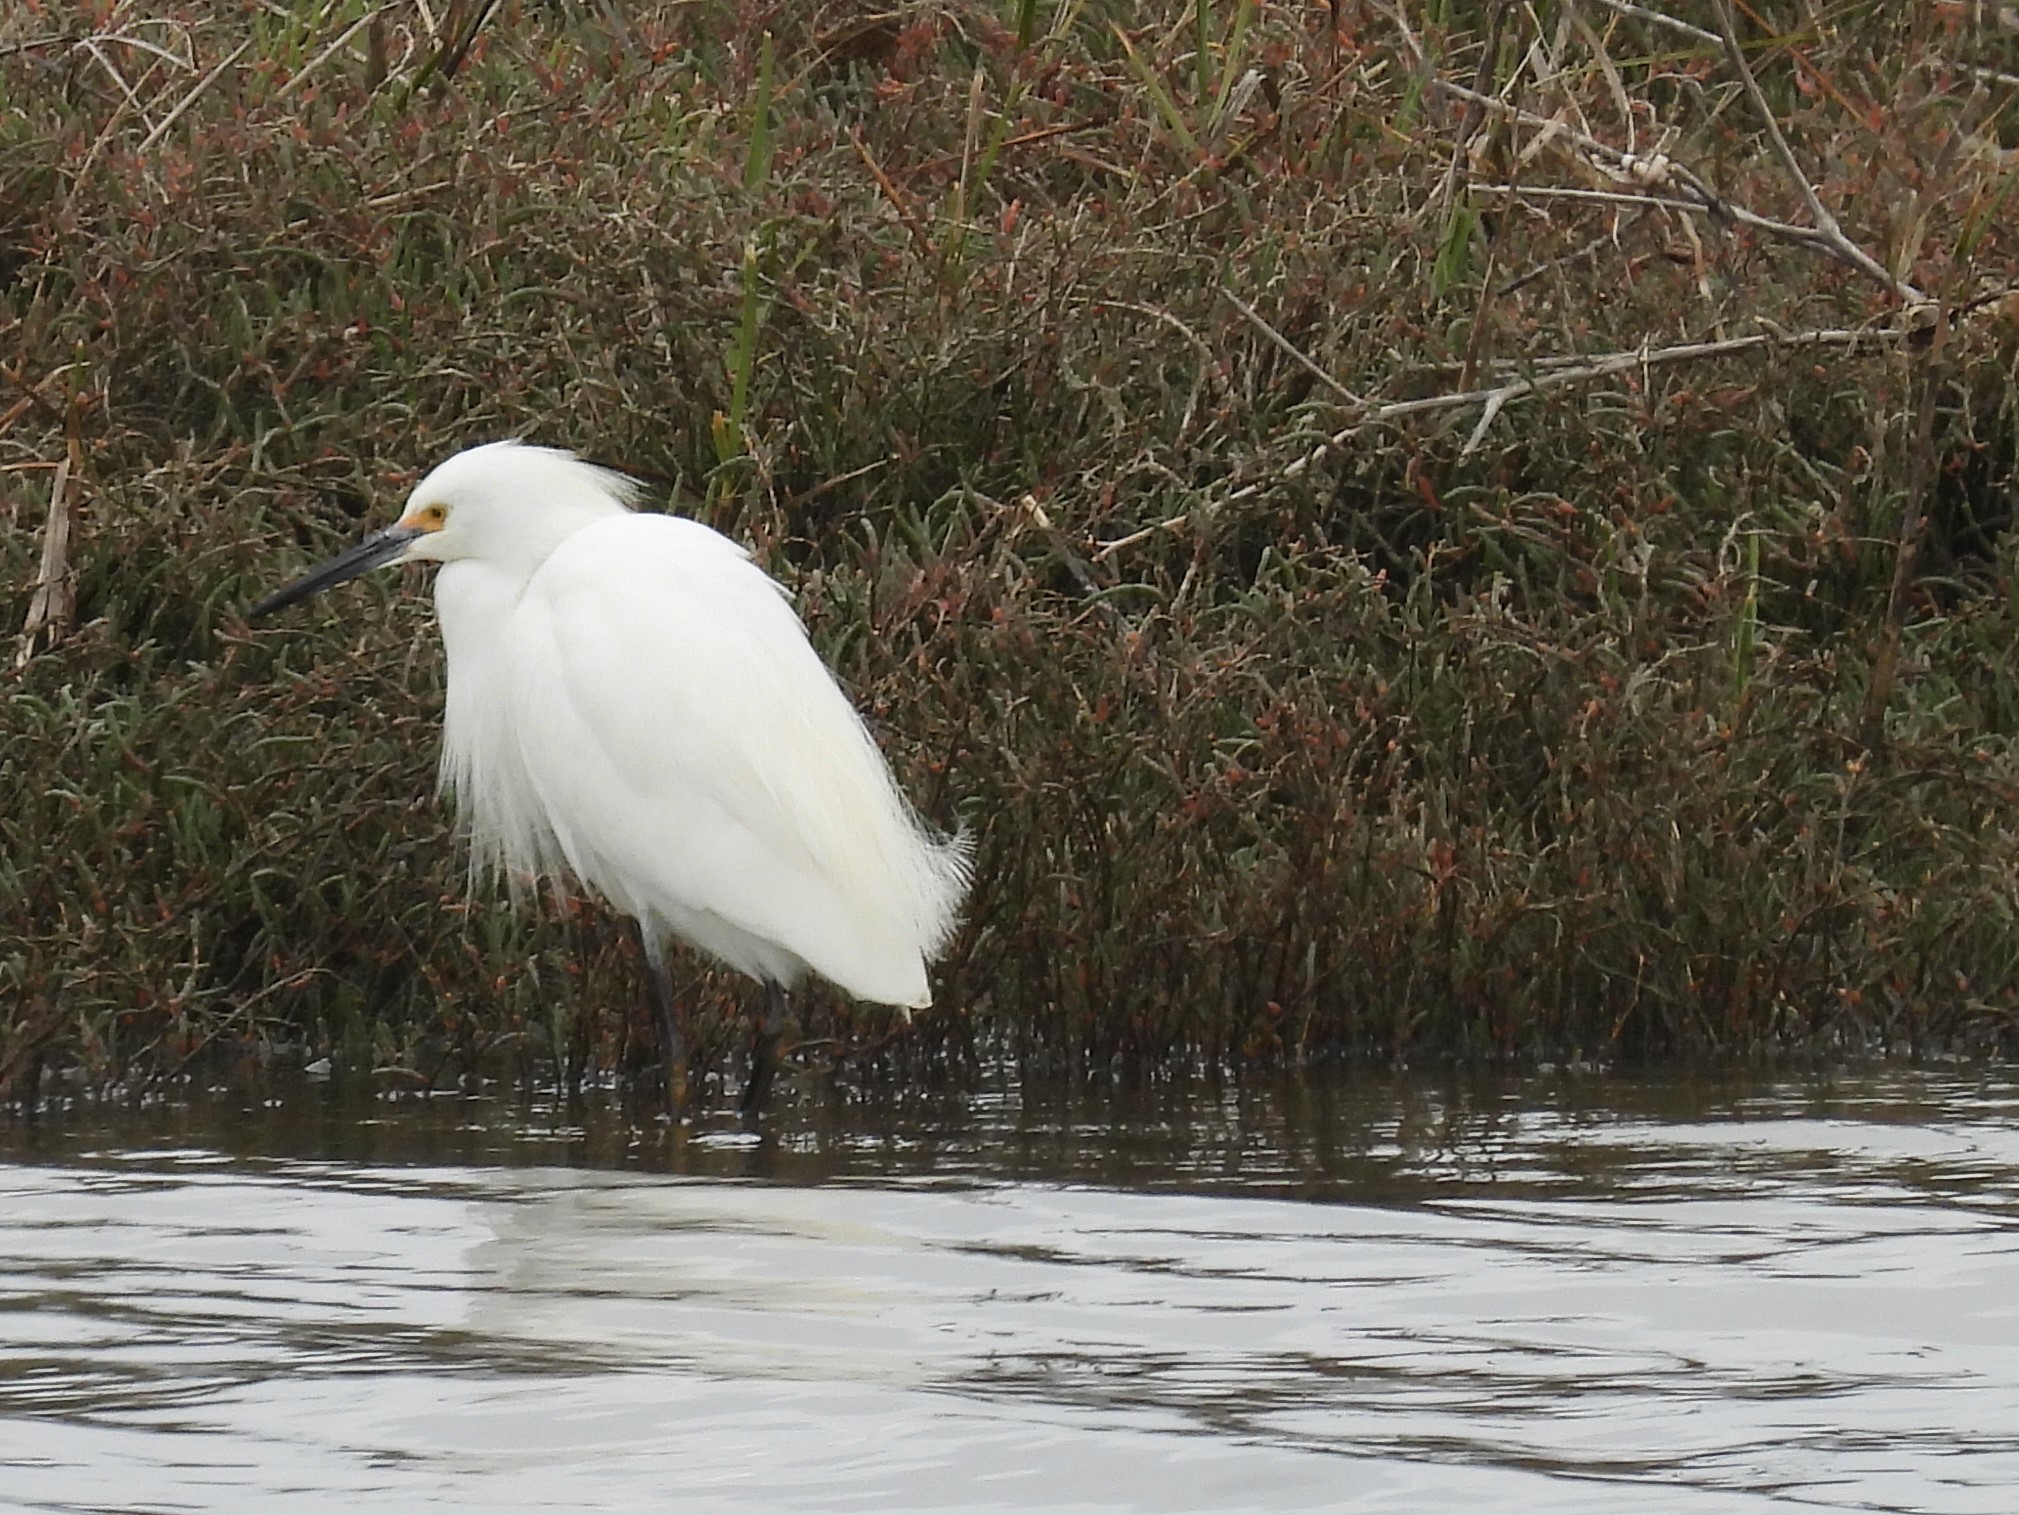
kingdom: Animalia
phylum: Chordata
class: Aves
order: Pelecaniformes
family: Ardeidae
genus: Egretta
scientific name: Egretta thula
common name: Snowy egret
